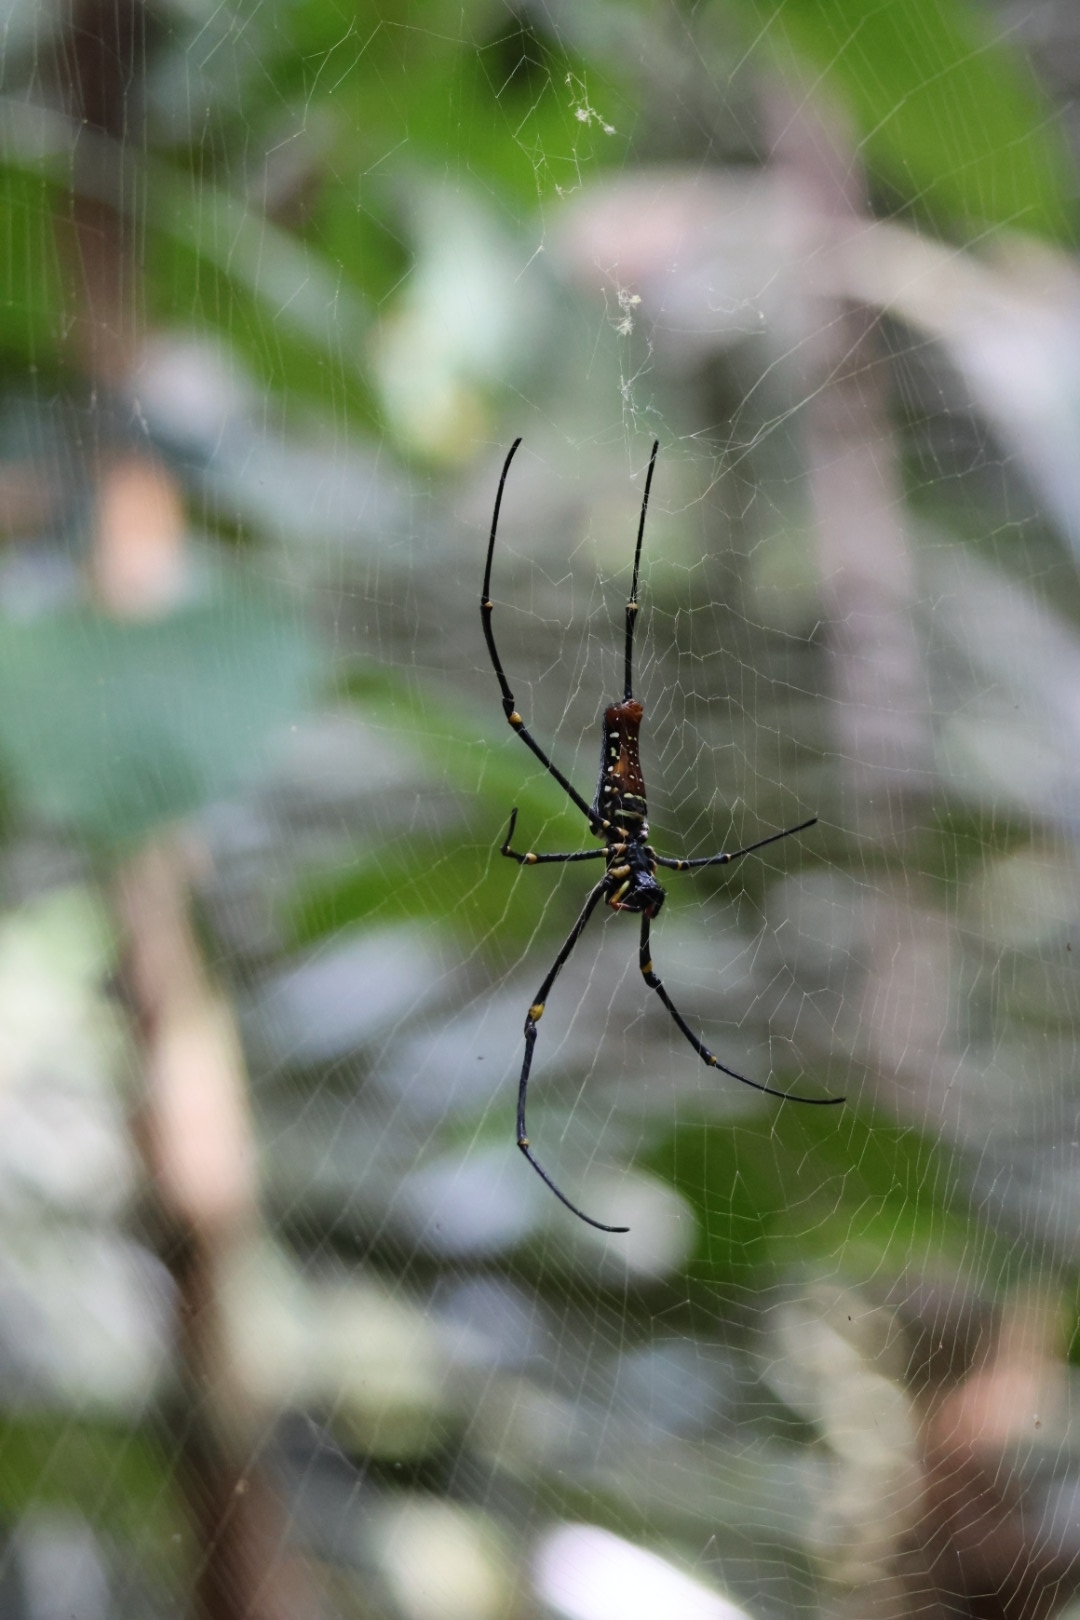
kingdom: Animalia
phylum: Arthropoda
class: Arachnida
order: Araneae
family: Araneidae
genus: Nephila
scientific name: Nephila pilipes
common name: Giant golden orb weaver
